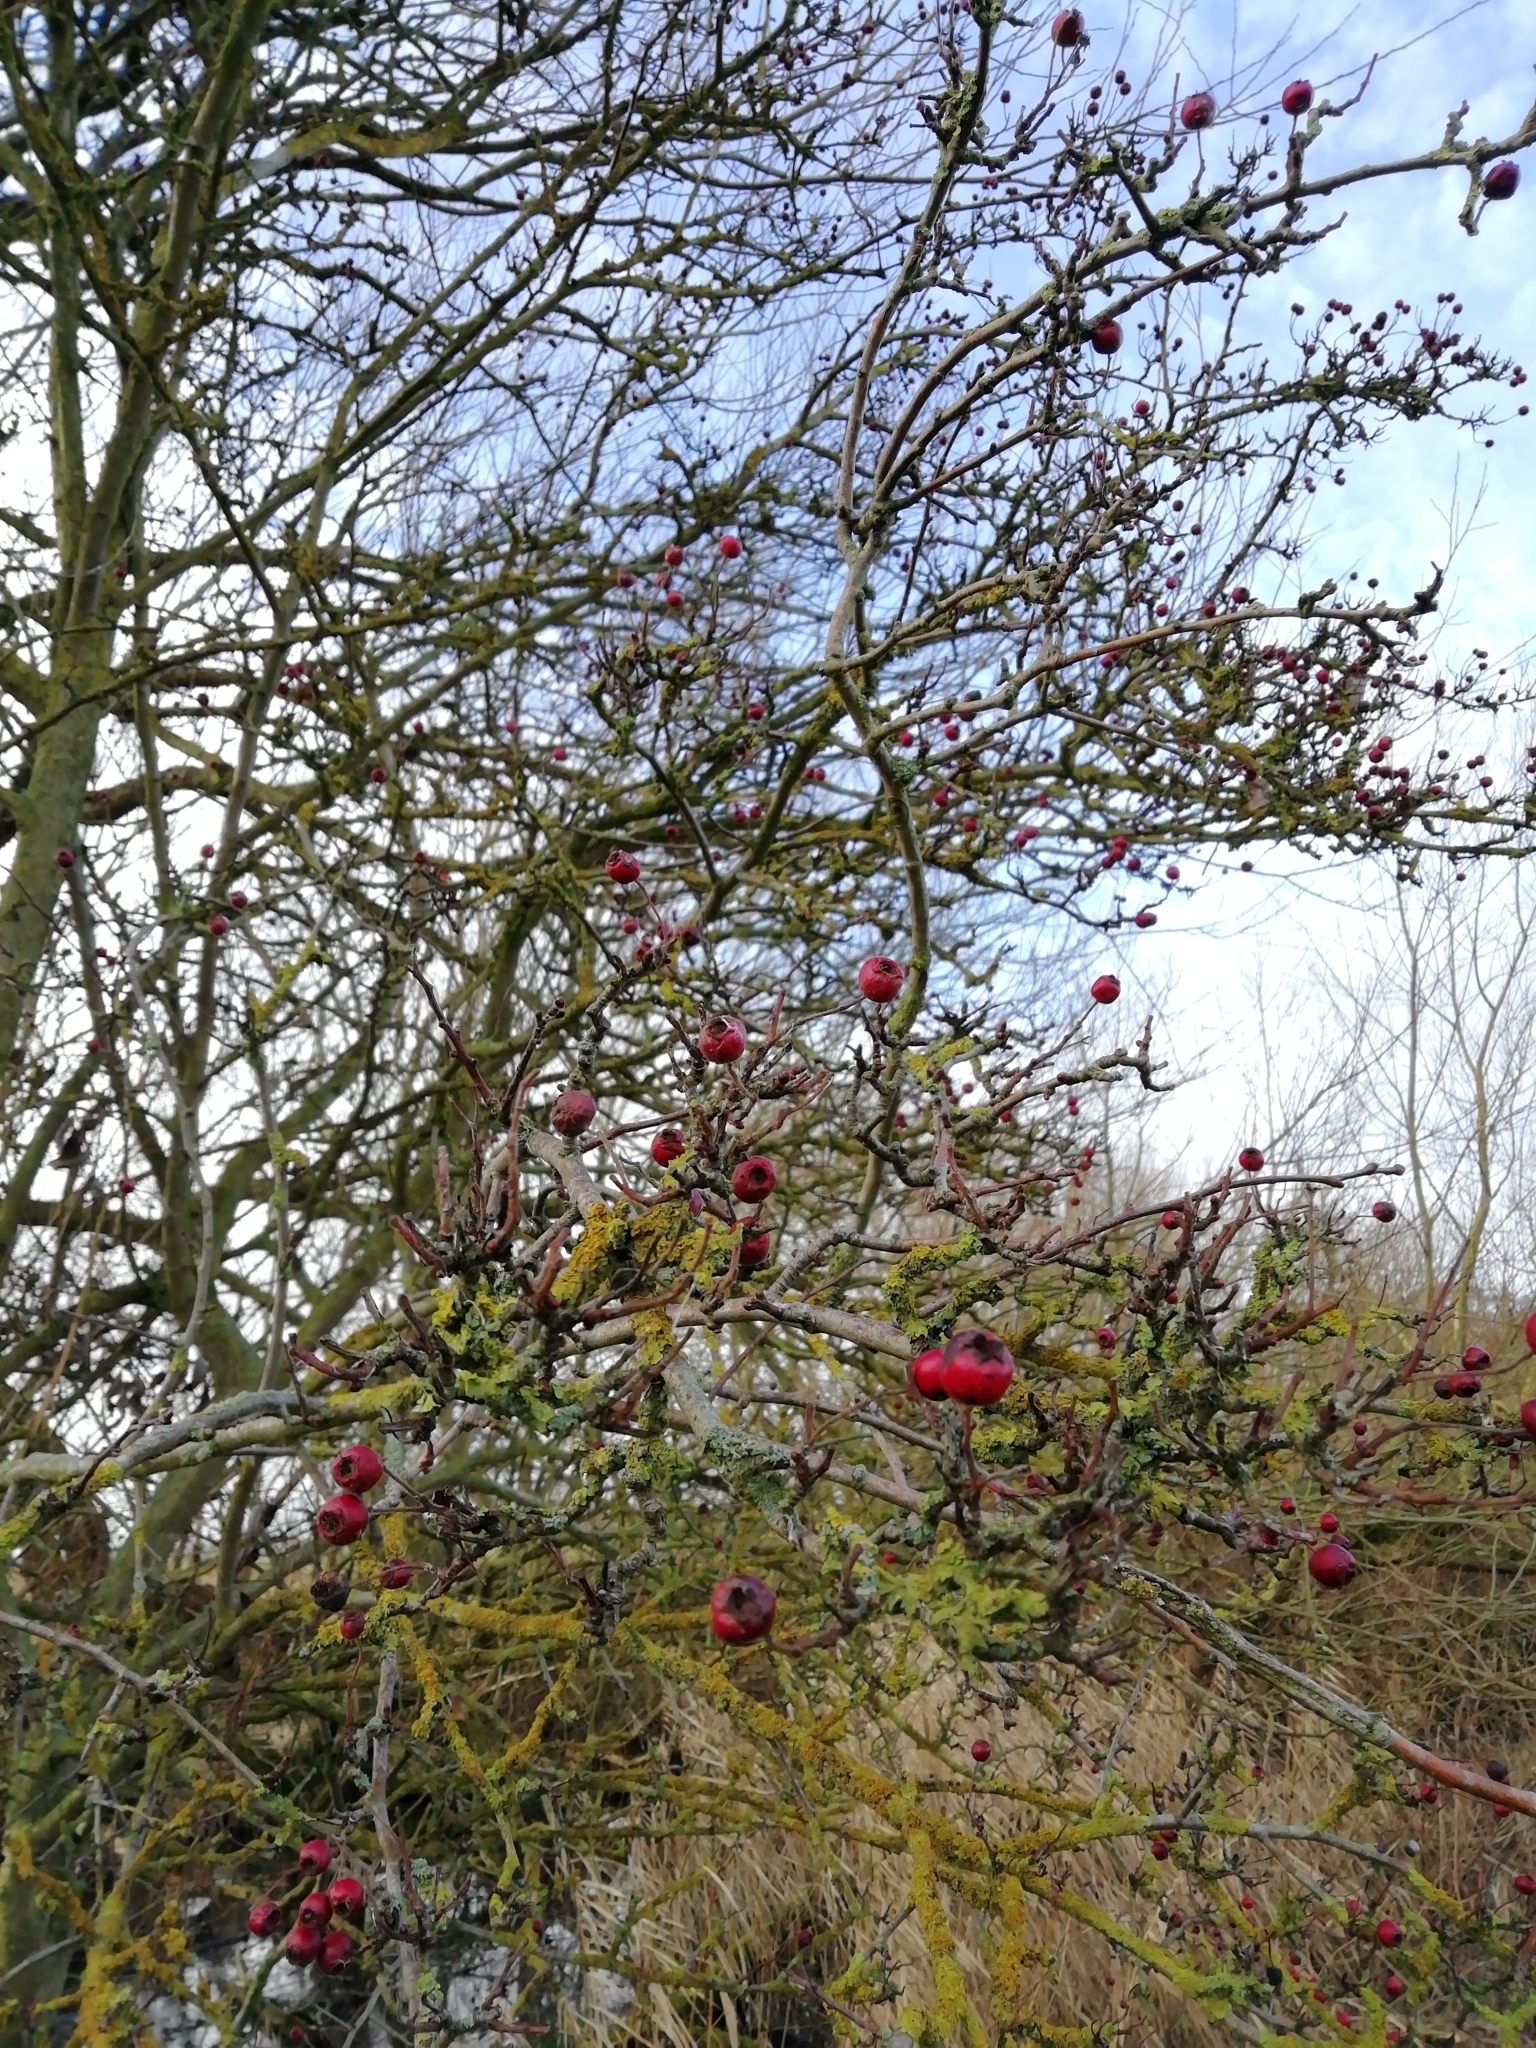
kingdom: Plantae
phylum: Tracheophyta
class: Magnoliopsida
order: Rosales
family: Rosaceae
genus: Crataegus
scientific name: Crataegus monogyna
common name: Hawthorn
